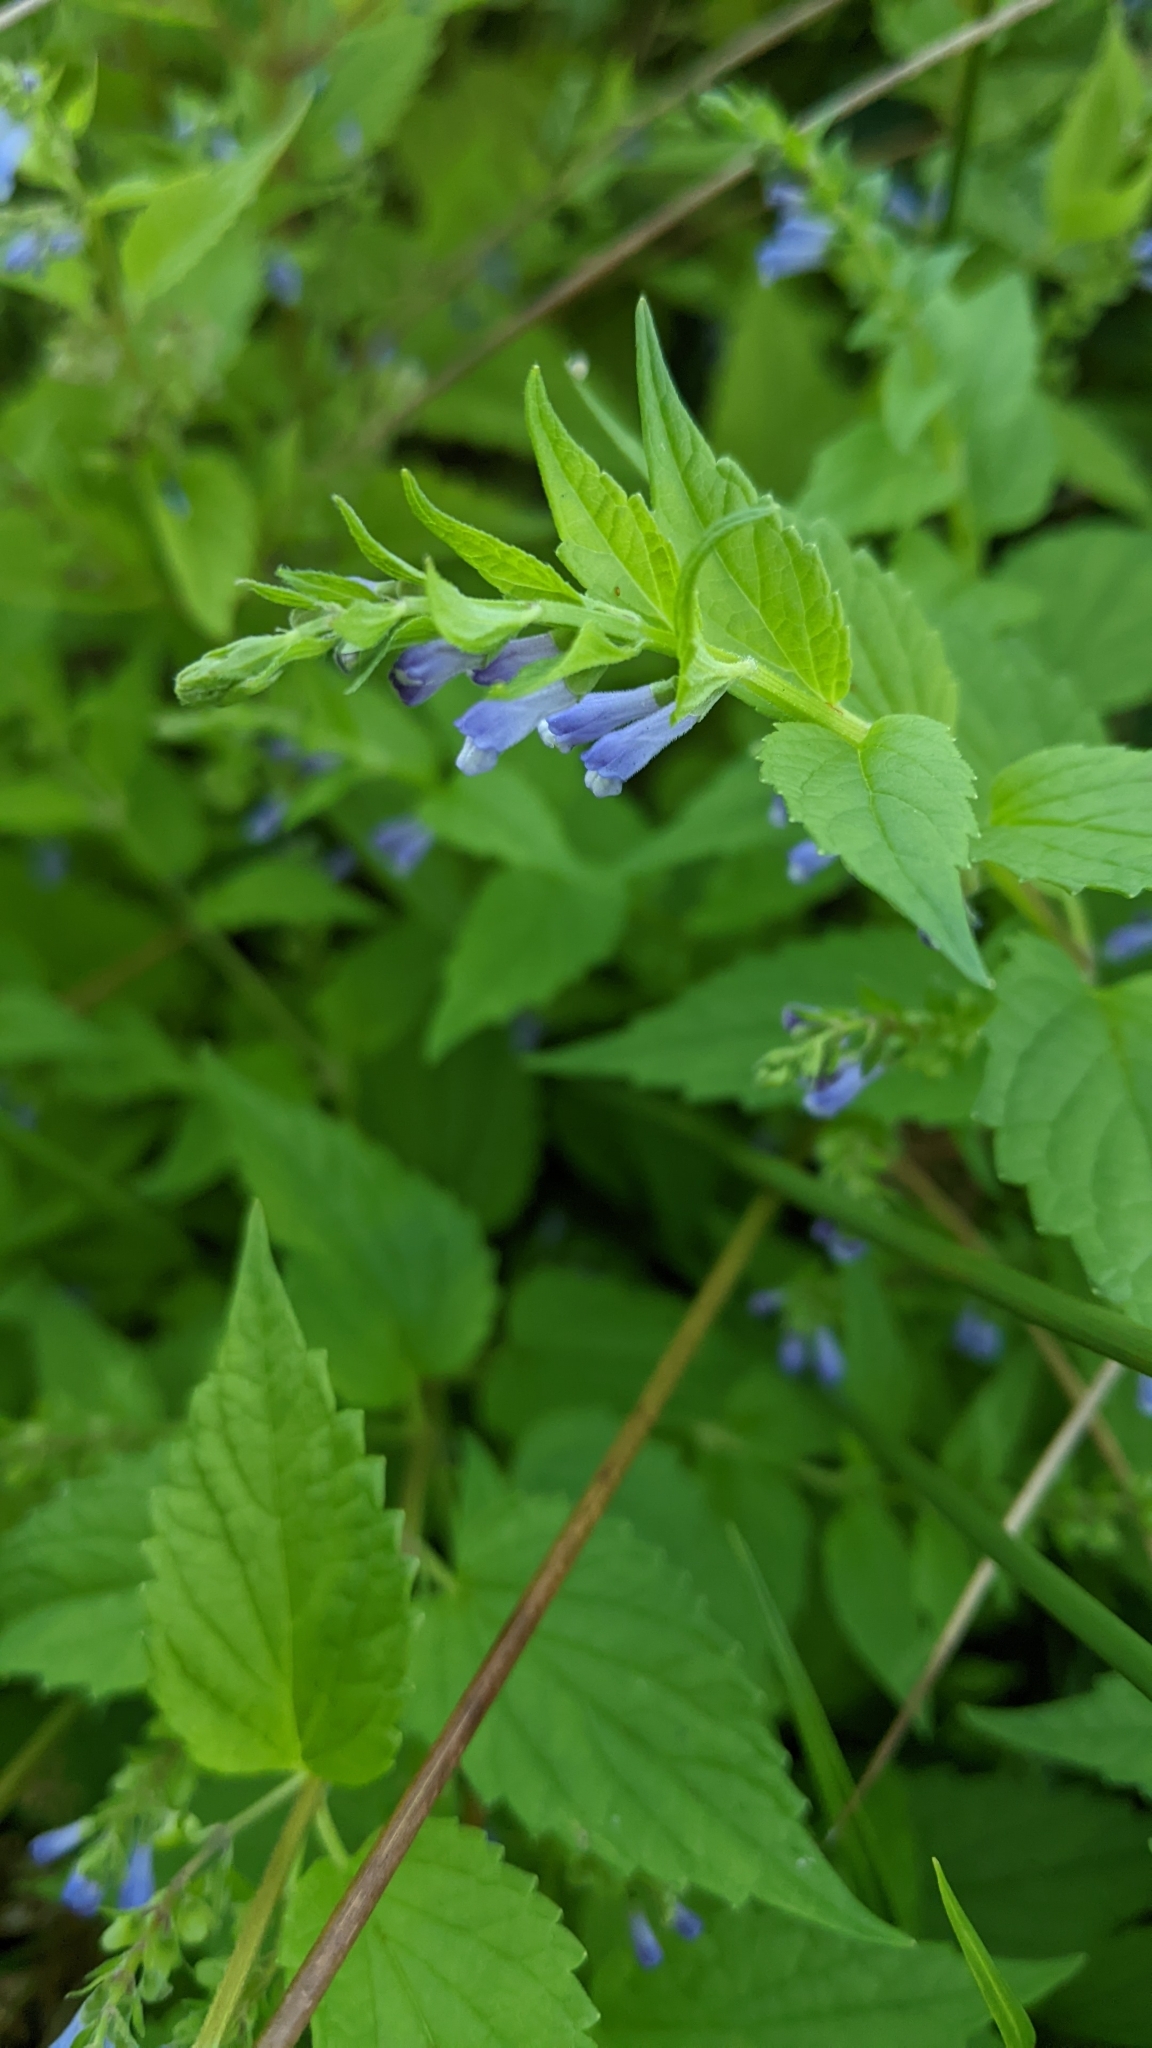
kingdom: Plantae
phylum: Tracheophyta
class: Magnoliopsida
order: Lamiales
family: Lamiaceae
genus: Scutellaria
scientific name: Scutellaria lateriflora
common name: Blue skullcap
